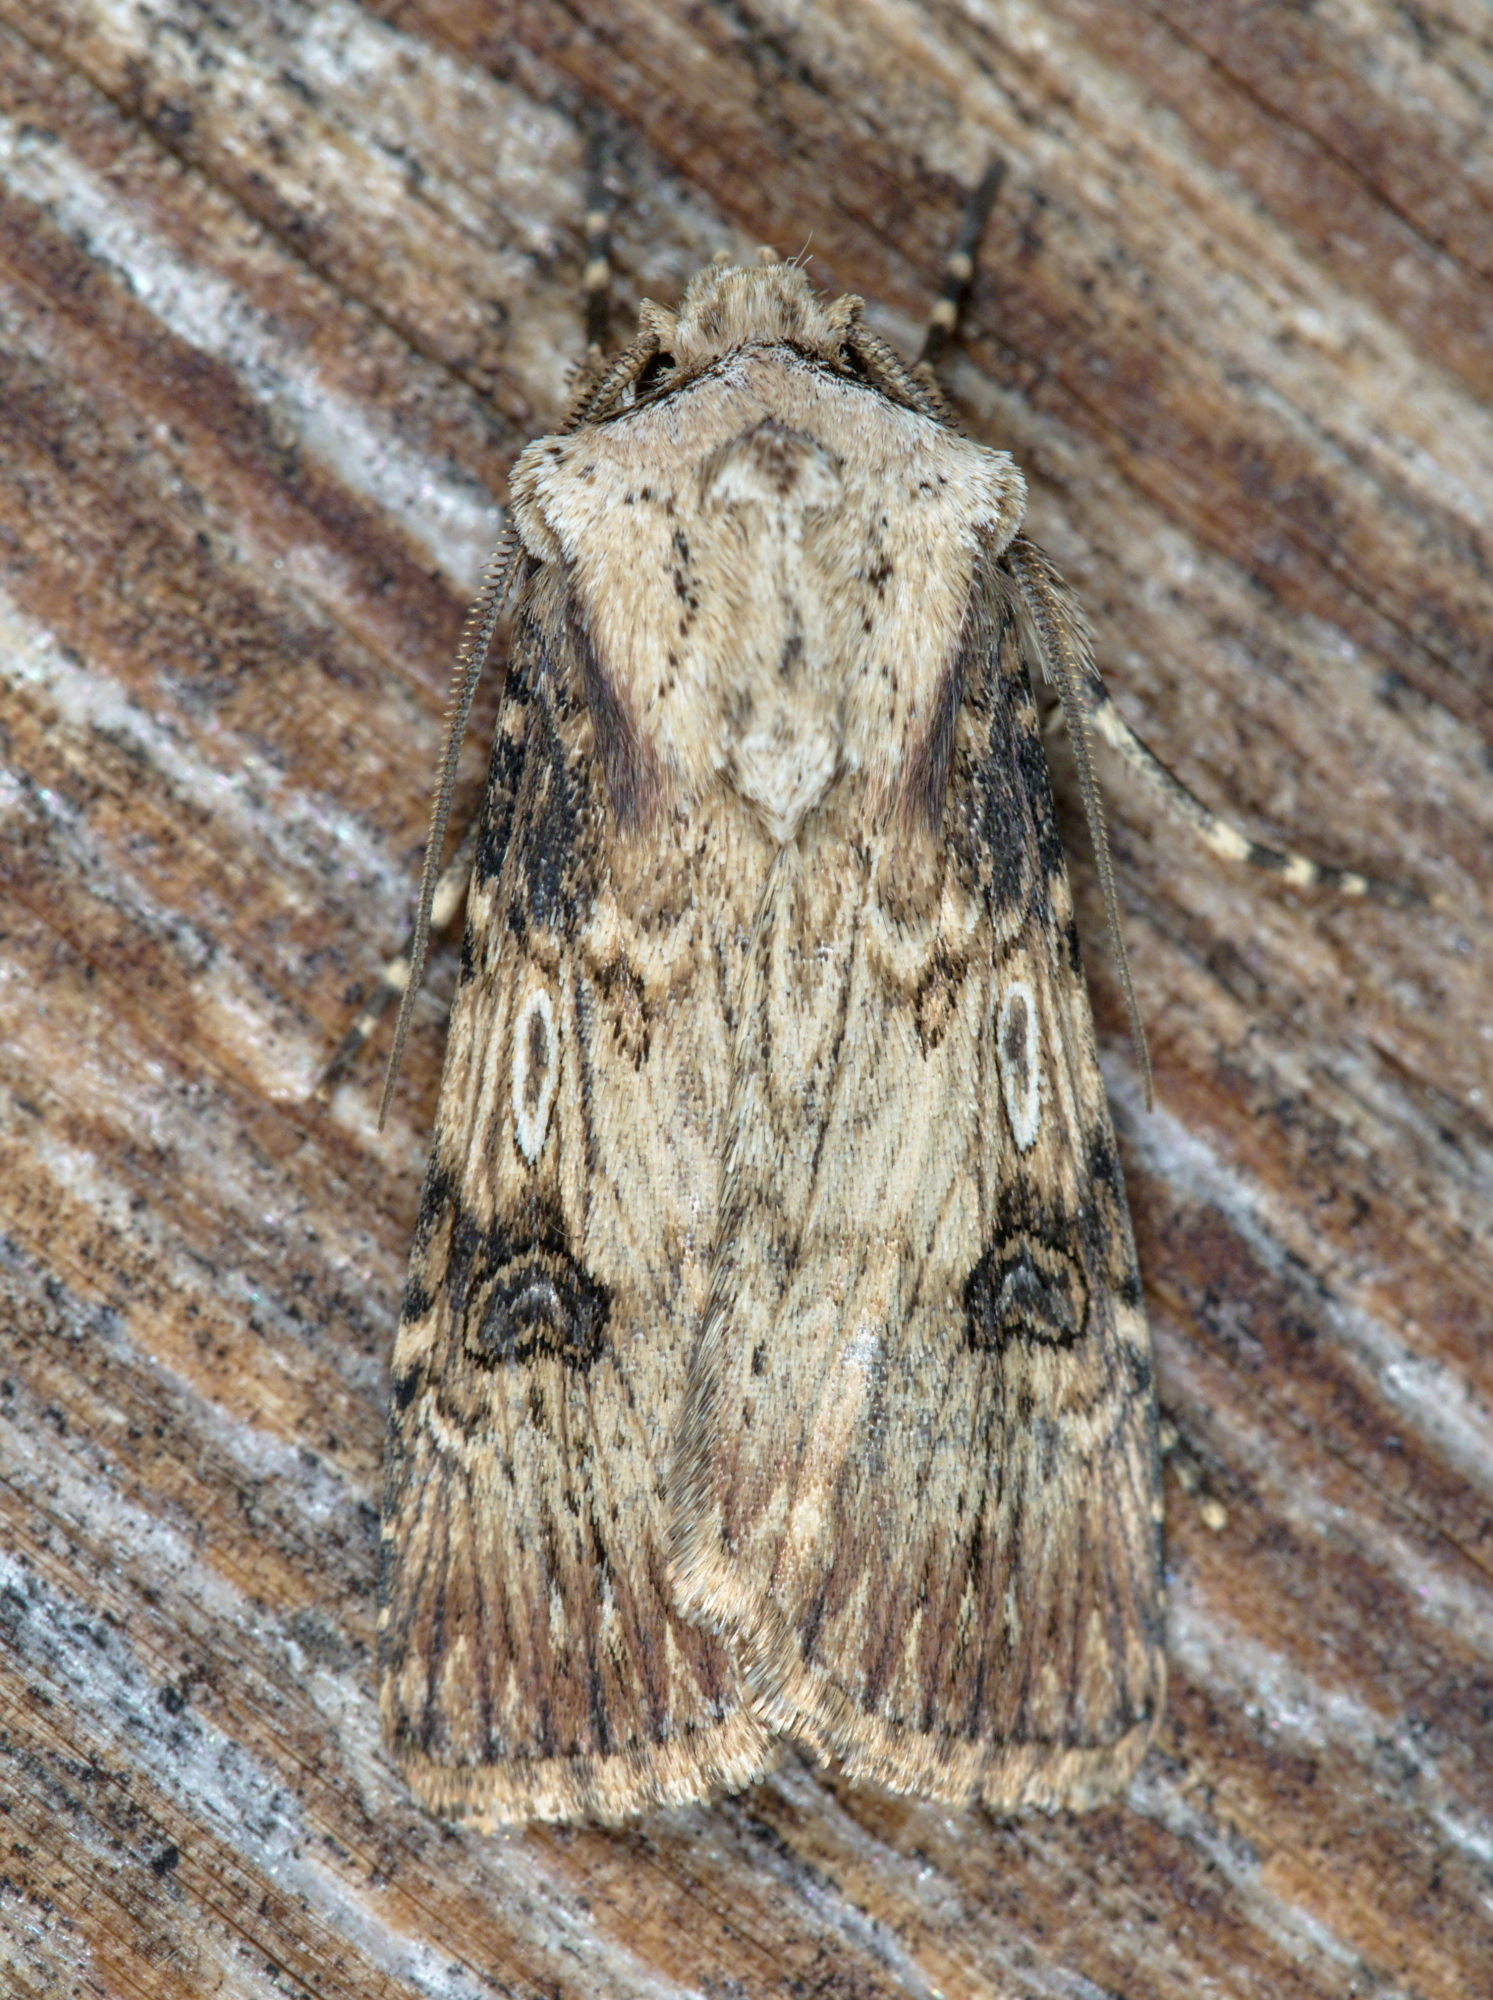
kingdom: Animalia
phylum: Arthropoda
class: Insecta
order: Lepidoptera
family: Noctuidae
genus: Agrotis
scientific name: Agrotis puta
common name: Shuttle-shaped dart
